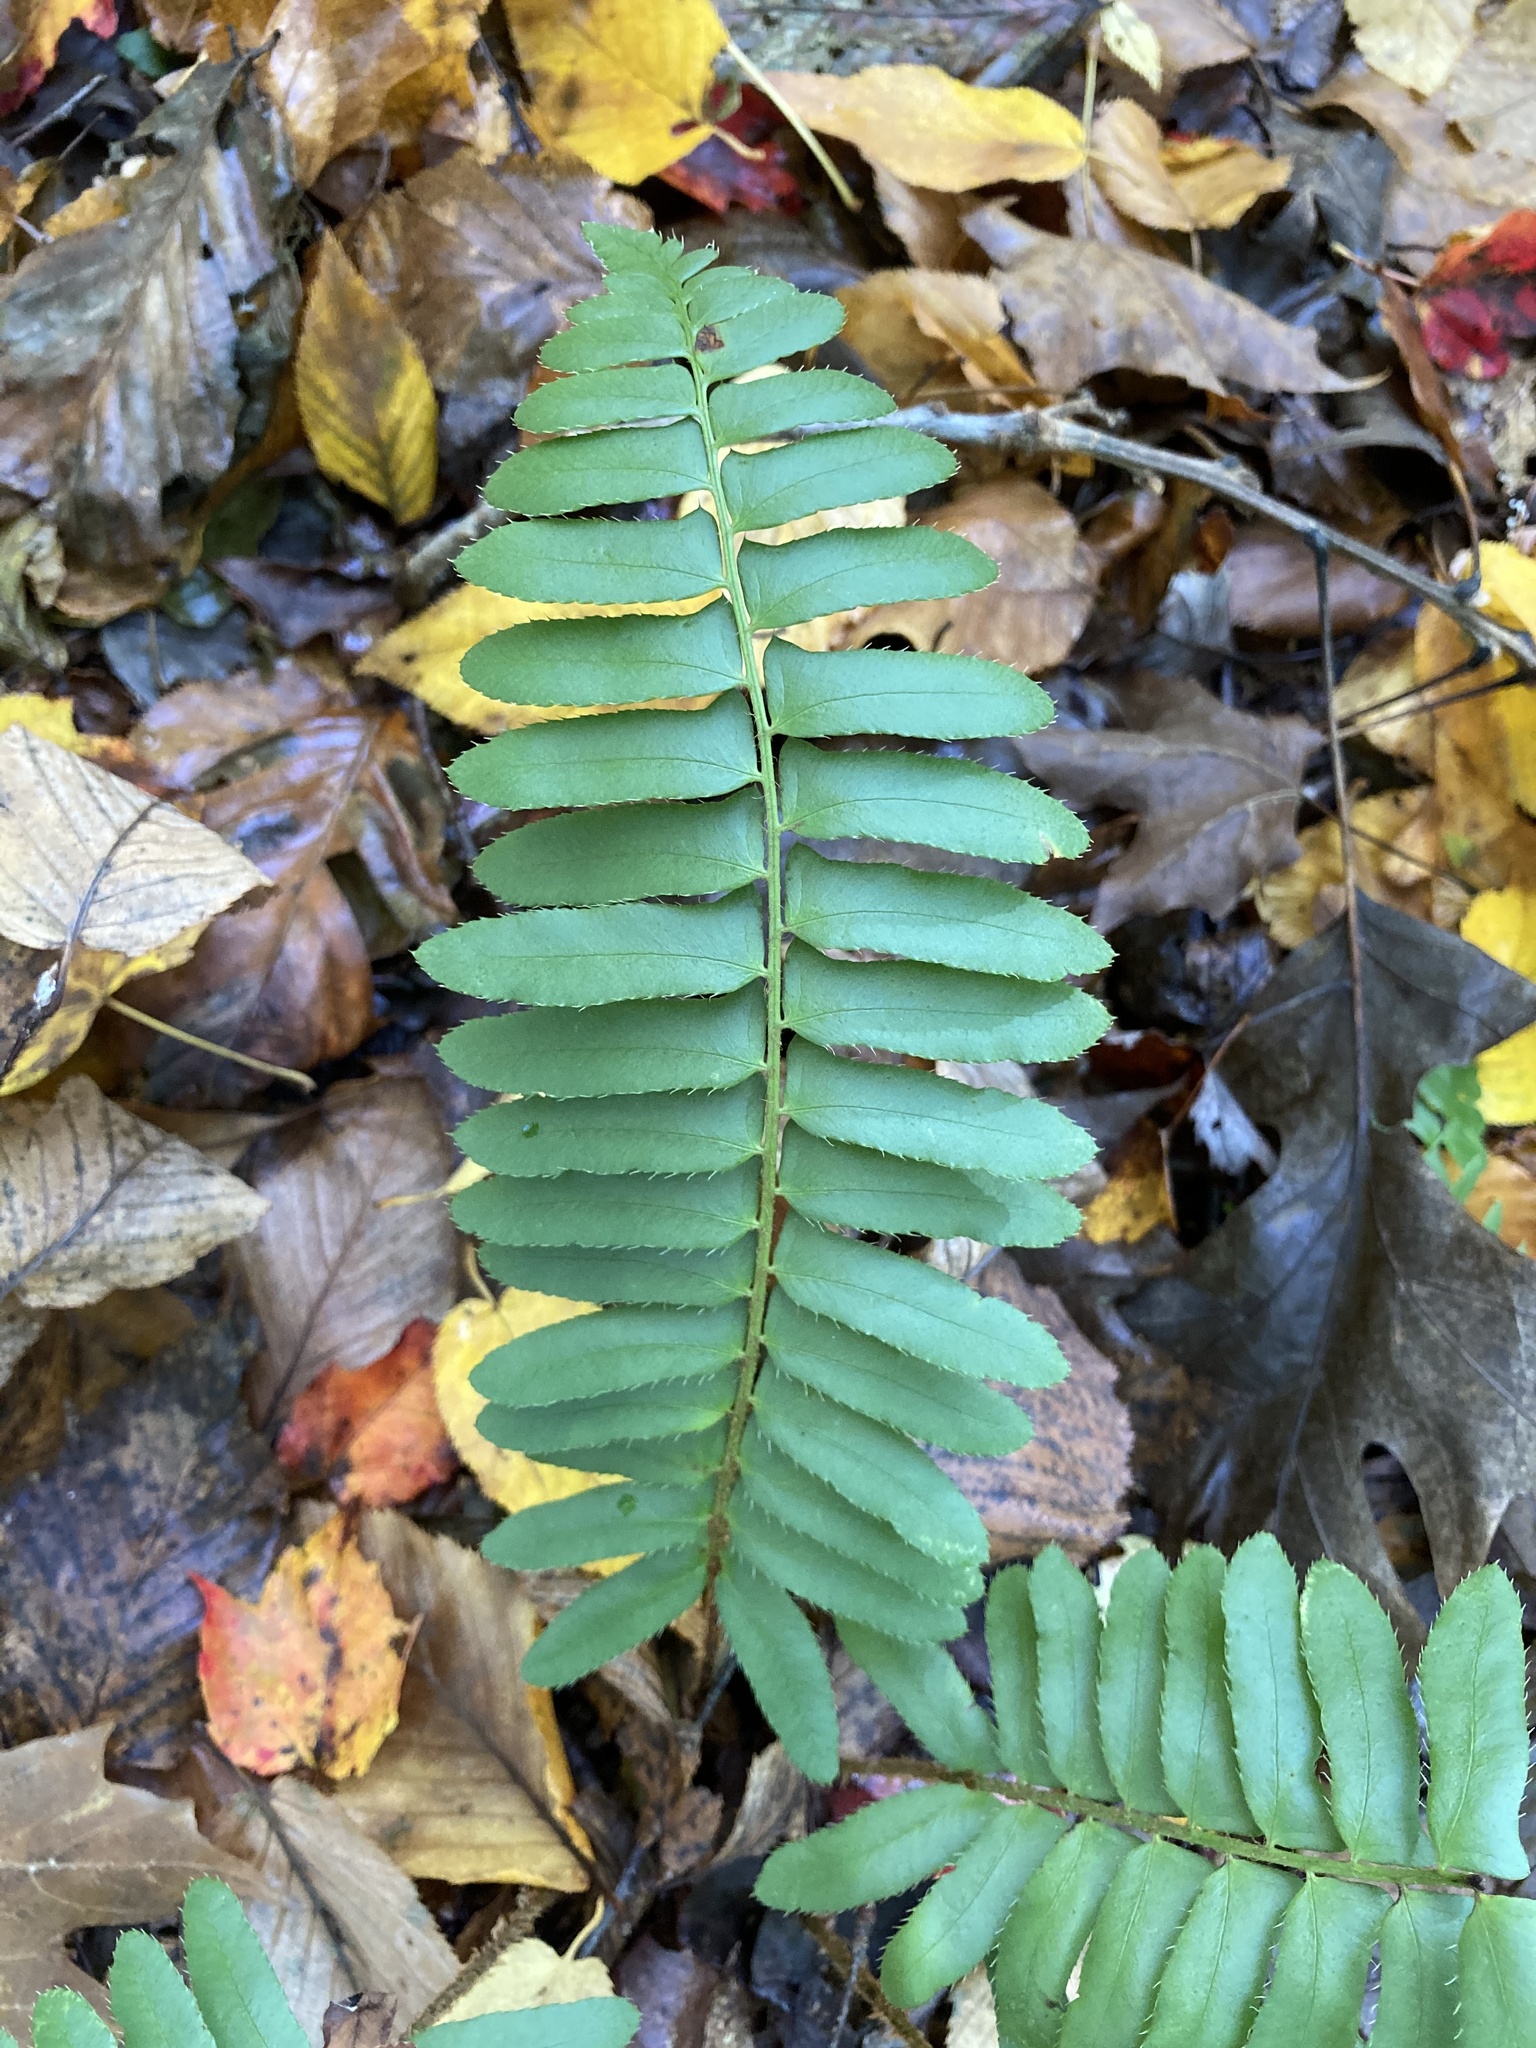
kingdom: Plantae
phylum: Tracheophyta
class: Polypodiopsida
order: Polypodiales
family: Dryopteridaceae
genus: Polystichum
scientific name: Polystichum acrostichoides
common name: Christmas fern
